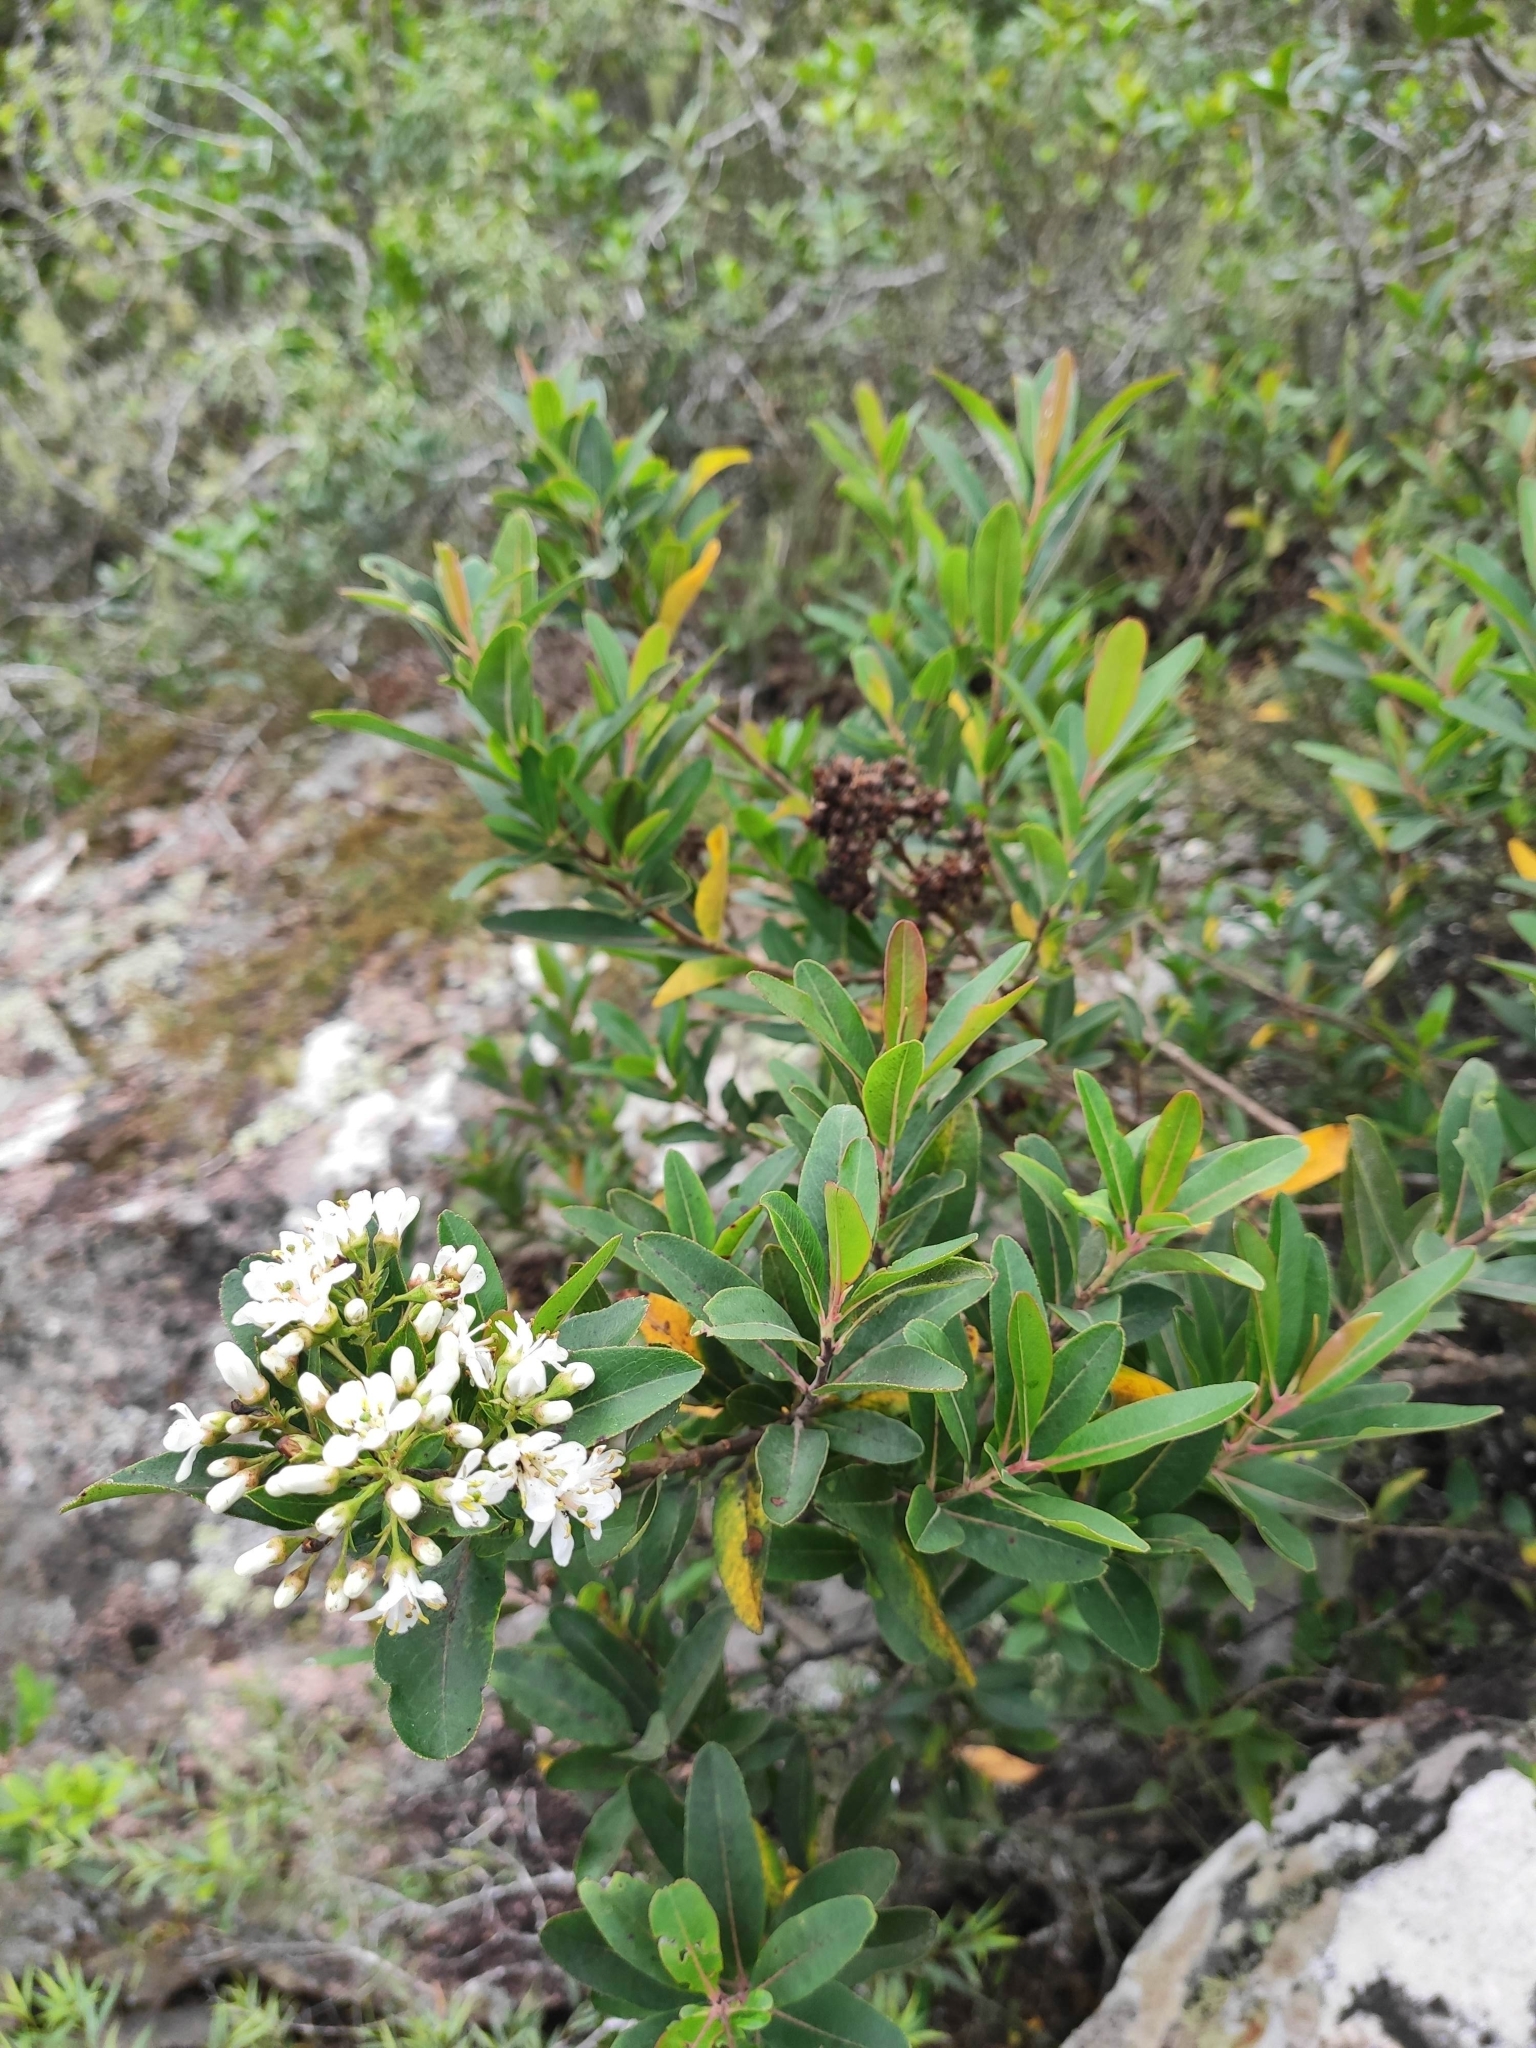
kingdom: Plantae
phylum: Tracheophyta
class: Magnoliopsida
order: Escalloniales
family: Escalloniaceae
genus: Escallonia
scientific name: Escallonia bifida
